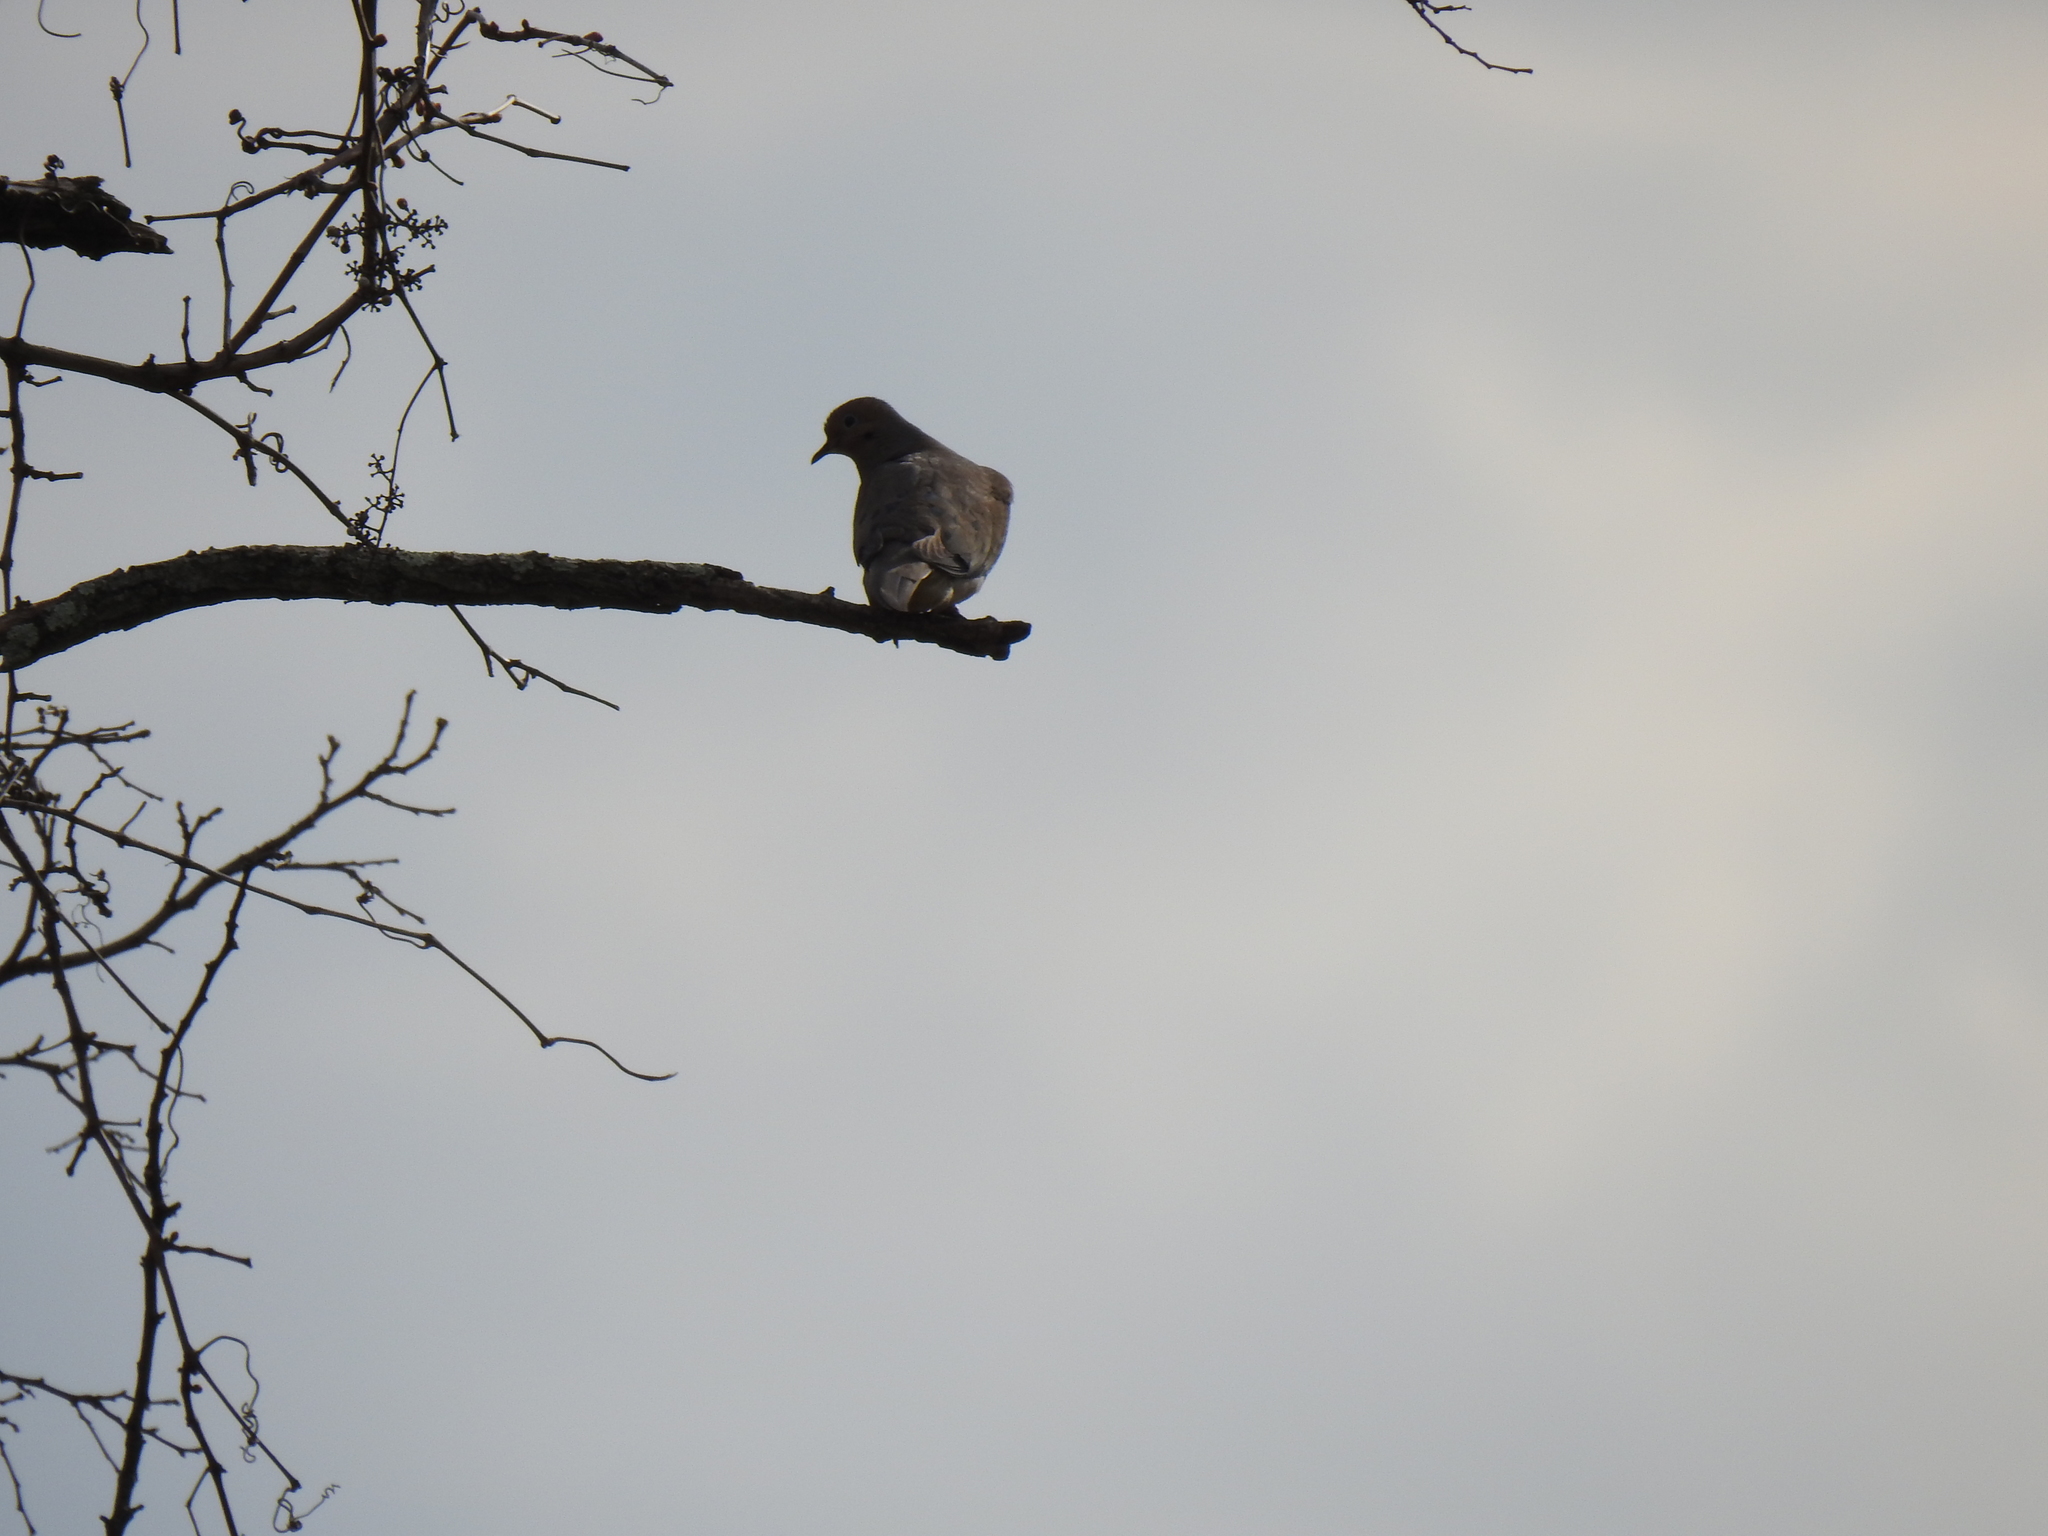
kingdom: Animalia
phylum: Chordata
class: Aves
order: Columbiformes
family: Columbidae
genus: Zenaida
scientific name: Zenaida macroura
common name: Mourning dove
